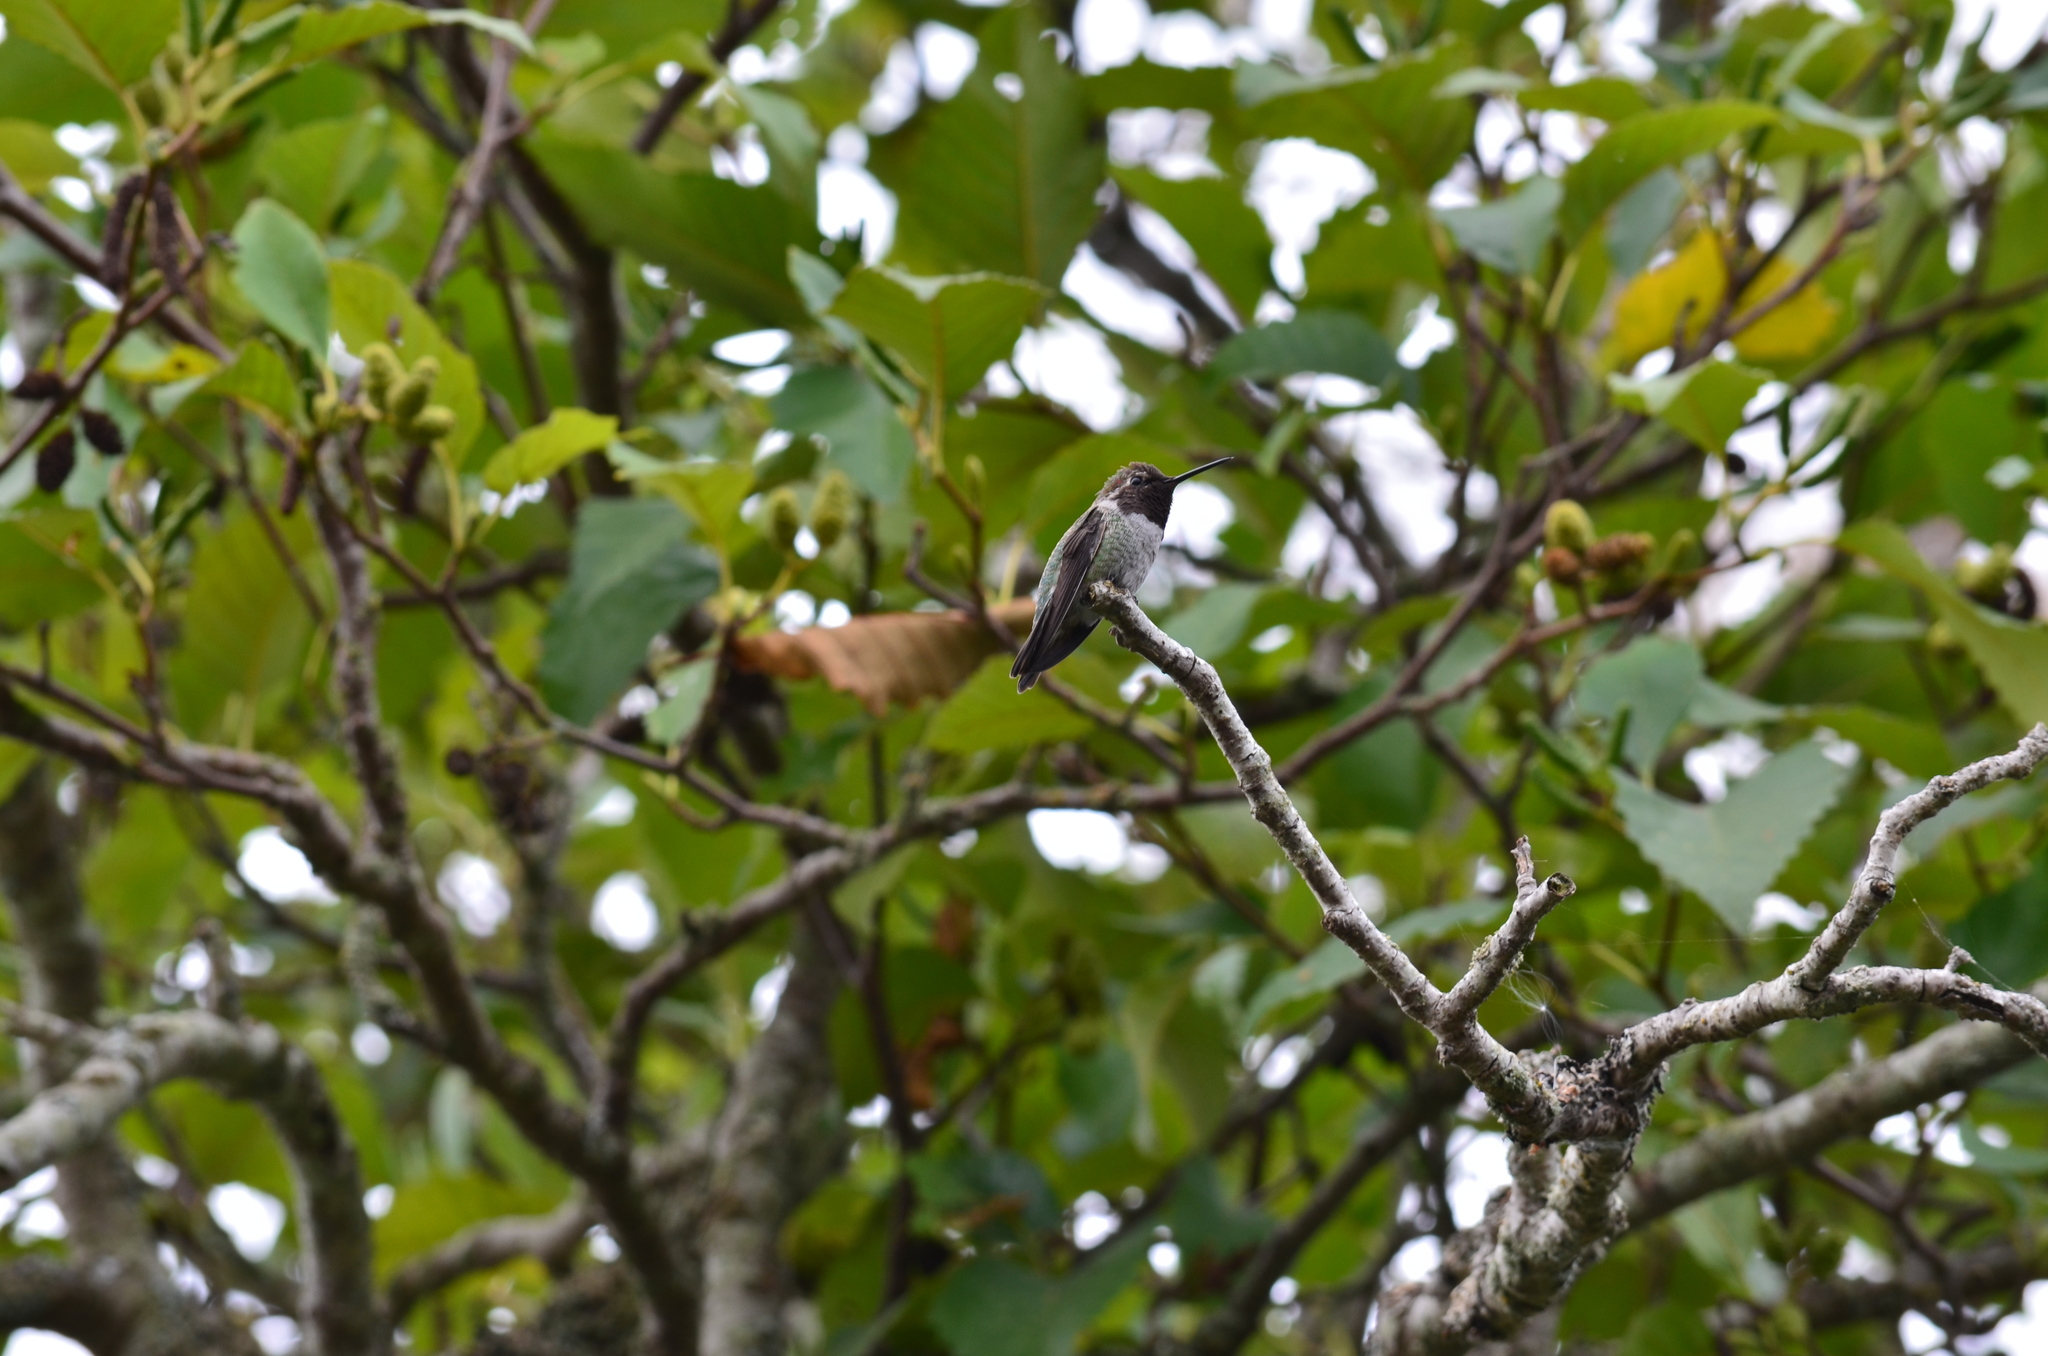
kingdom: Animalia
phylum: Chordata
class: Aves
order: Apodiformes
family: Trochilidae
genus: Calypte
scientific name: Calypte anna
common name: Anna's hummingbird
